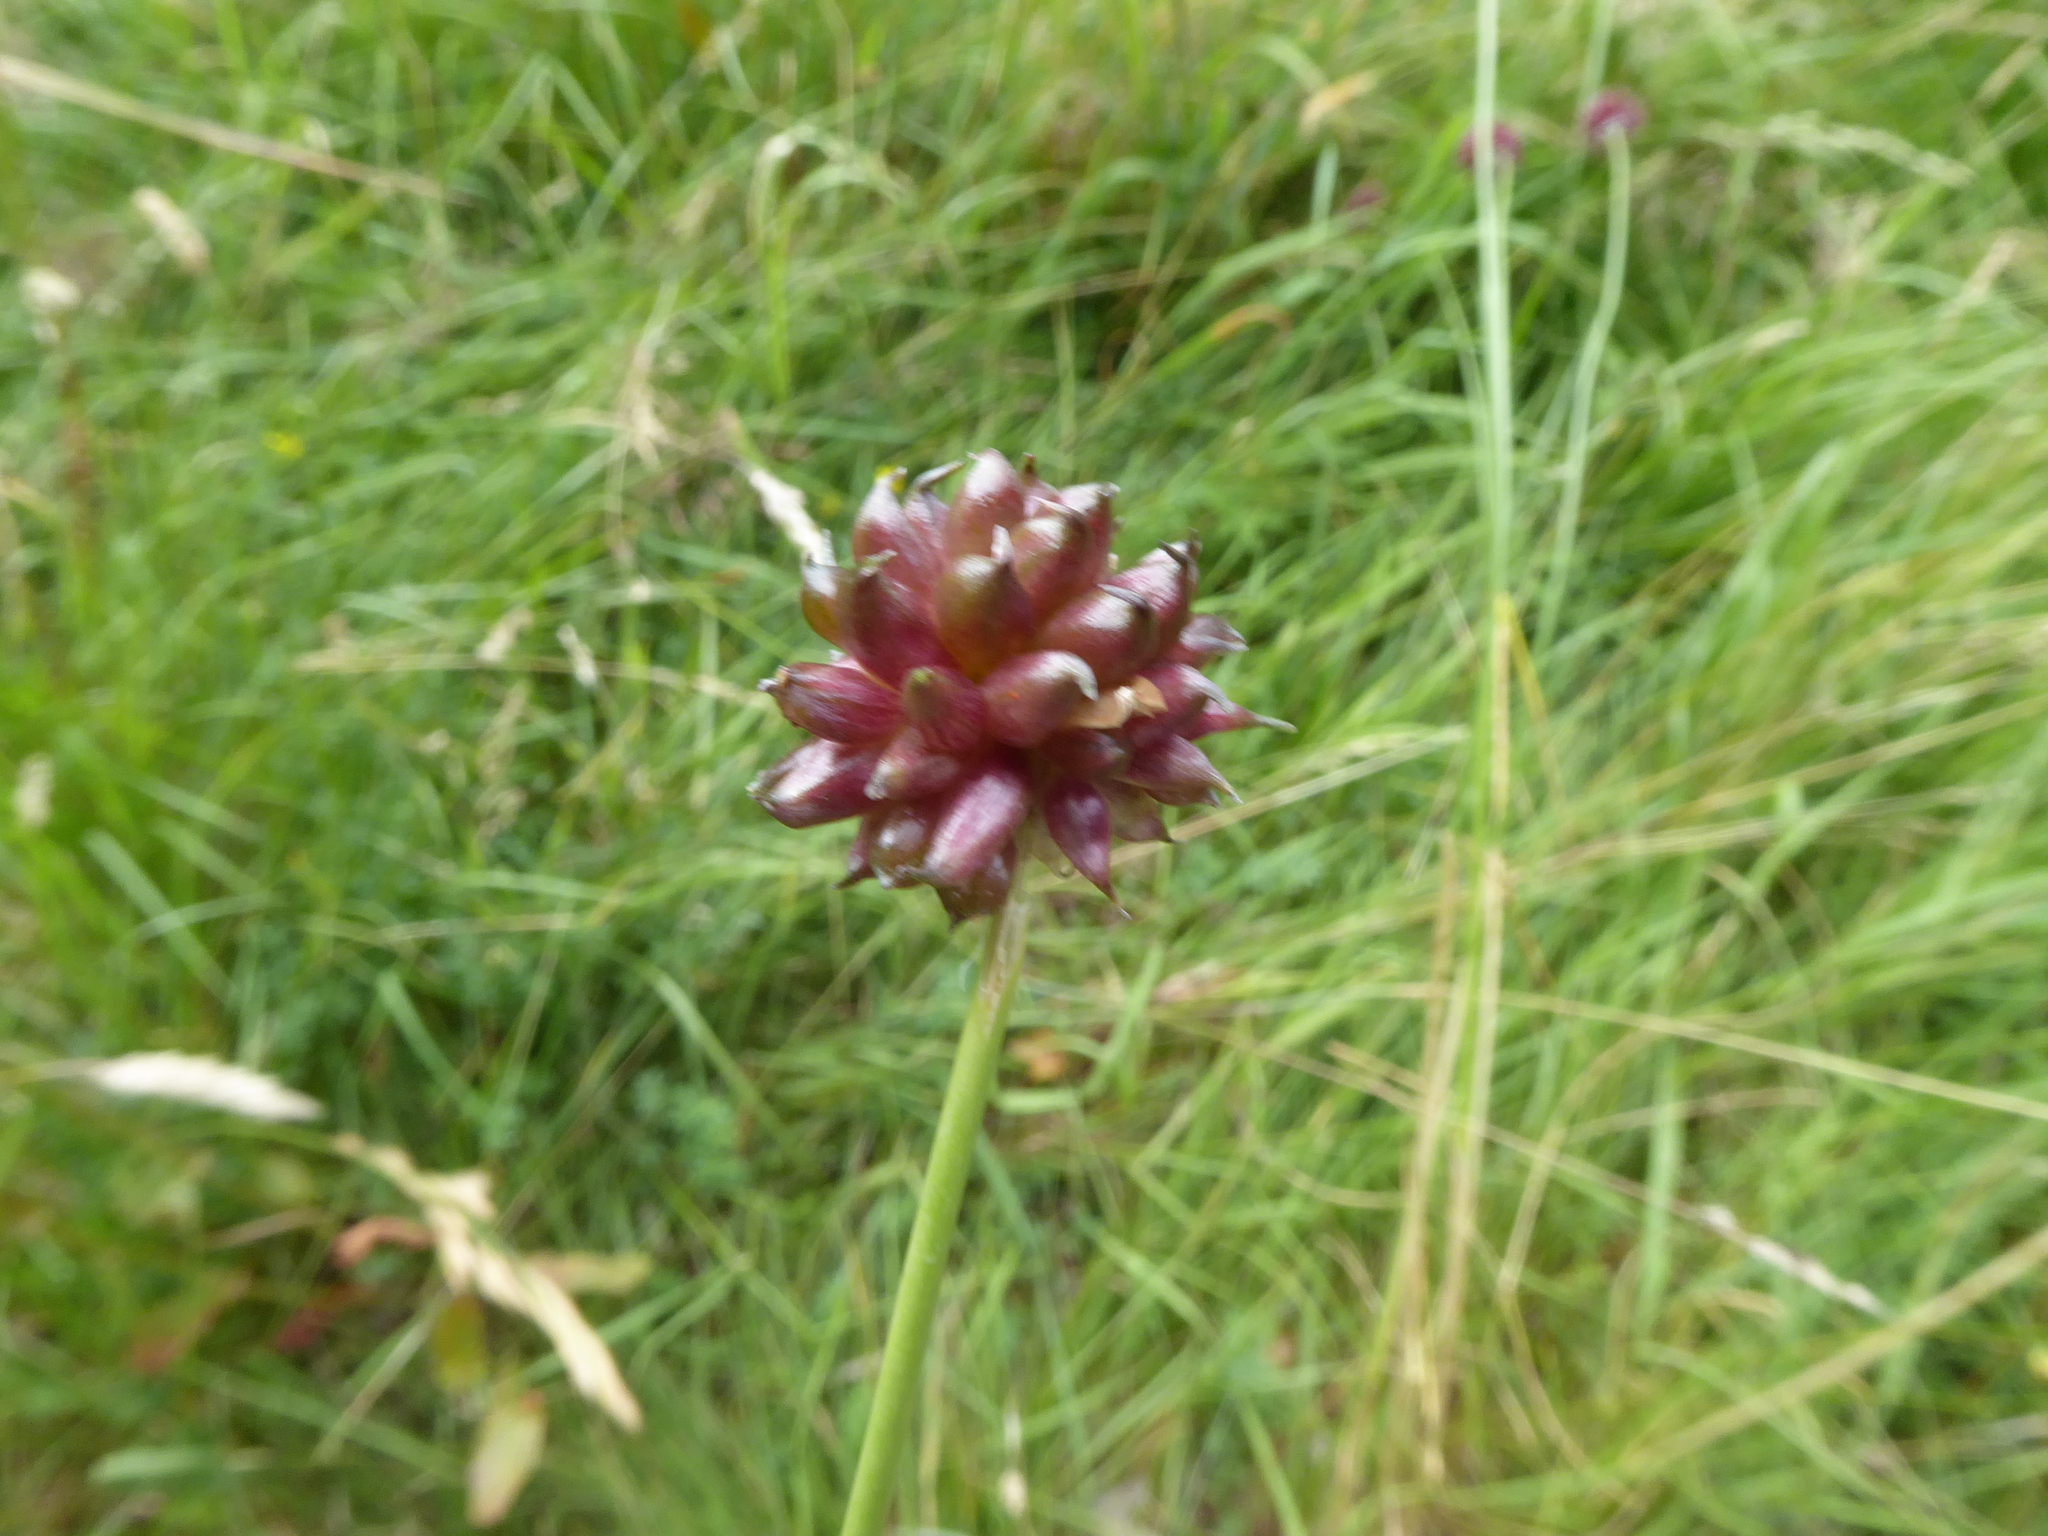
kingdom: Plantae
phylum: Tracheophyta
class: Liliopsida
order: Asparagales
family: Amaryllidaceae
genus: Allium
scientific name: Allium vineale
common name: Crow garlic
